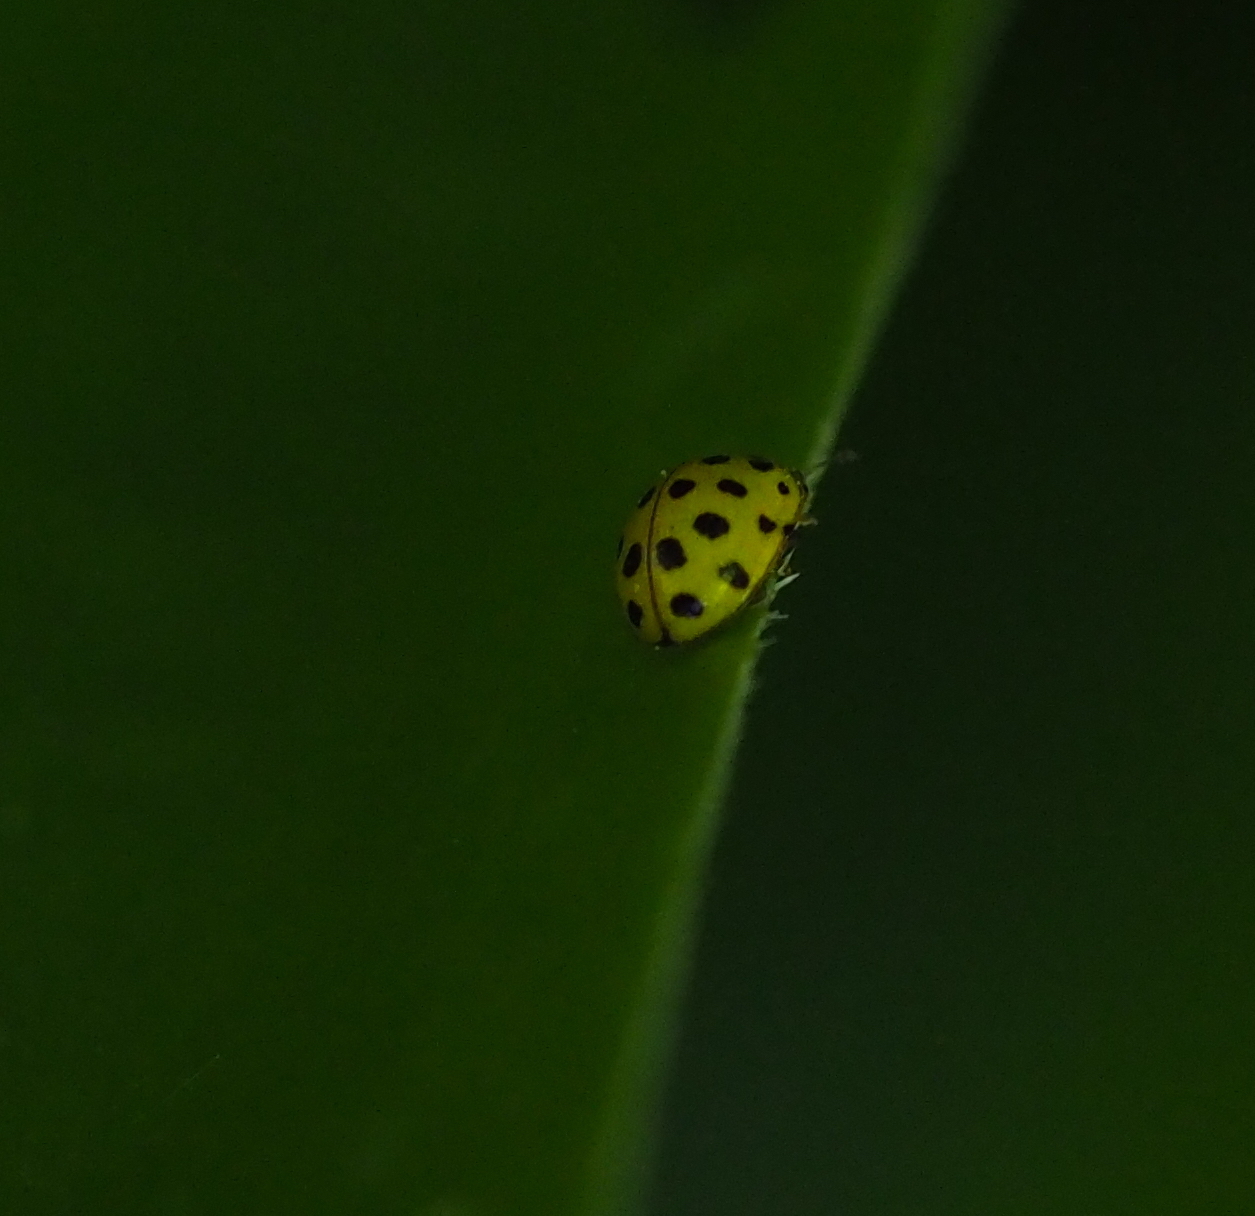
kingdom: Animalia
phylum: Arthropoda
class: Insecta
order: Coleoptera
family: Coccinellidae
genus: Psyllobora
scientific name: Psyllobora vigintiduopunctata
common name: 22-spot ladybird
